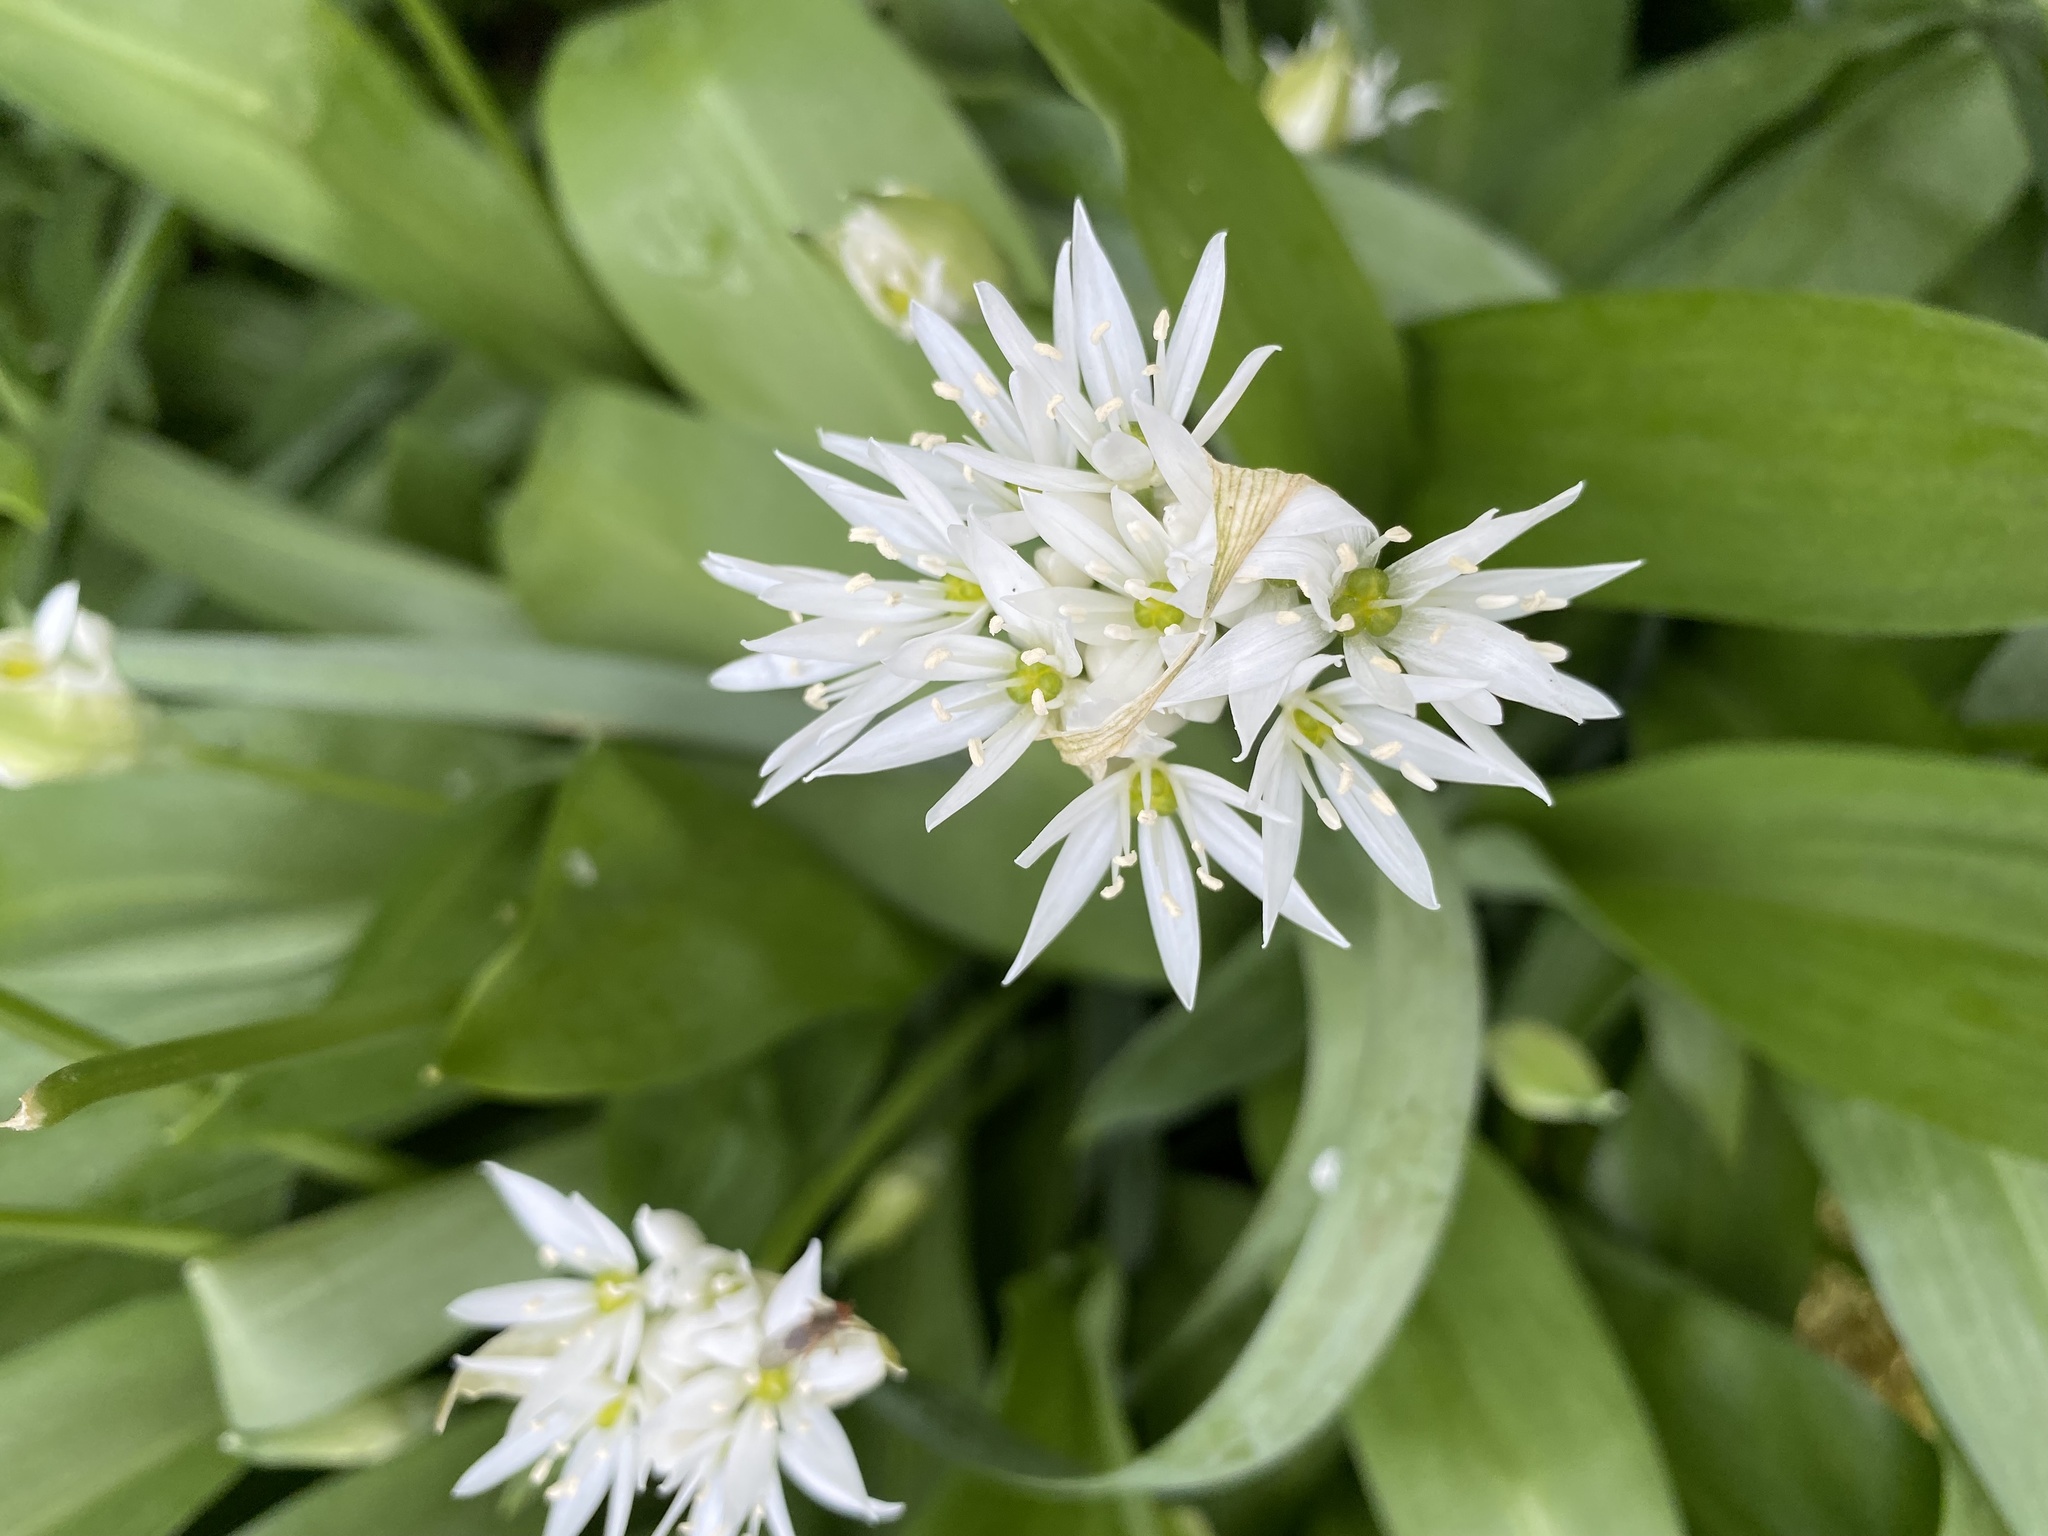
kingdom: Plantae
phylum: Tracheophyta
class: Liliopsida
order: Asparagales
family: Amaryllidaceae
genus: Allium
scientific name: Allium ursinum
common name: Ramsons
